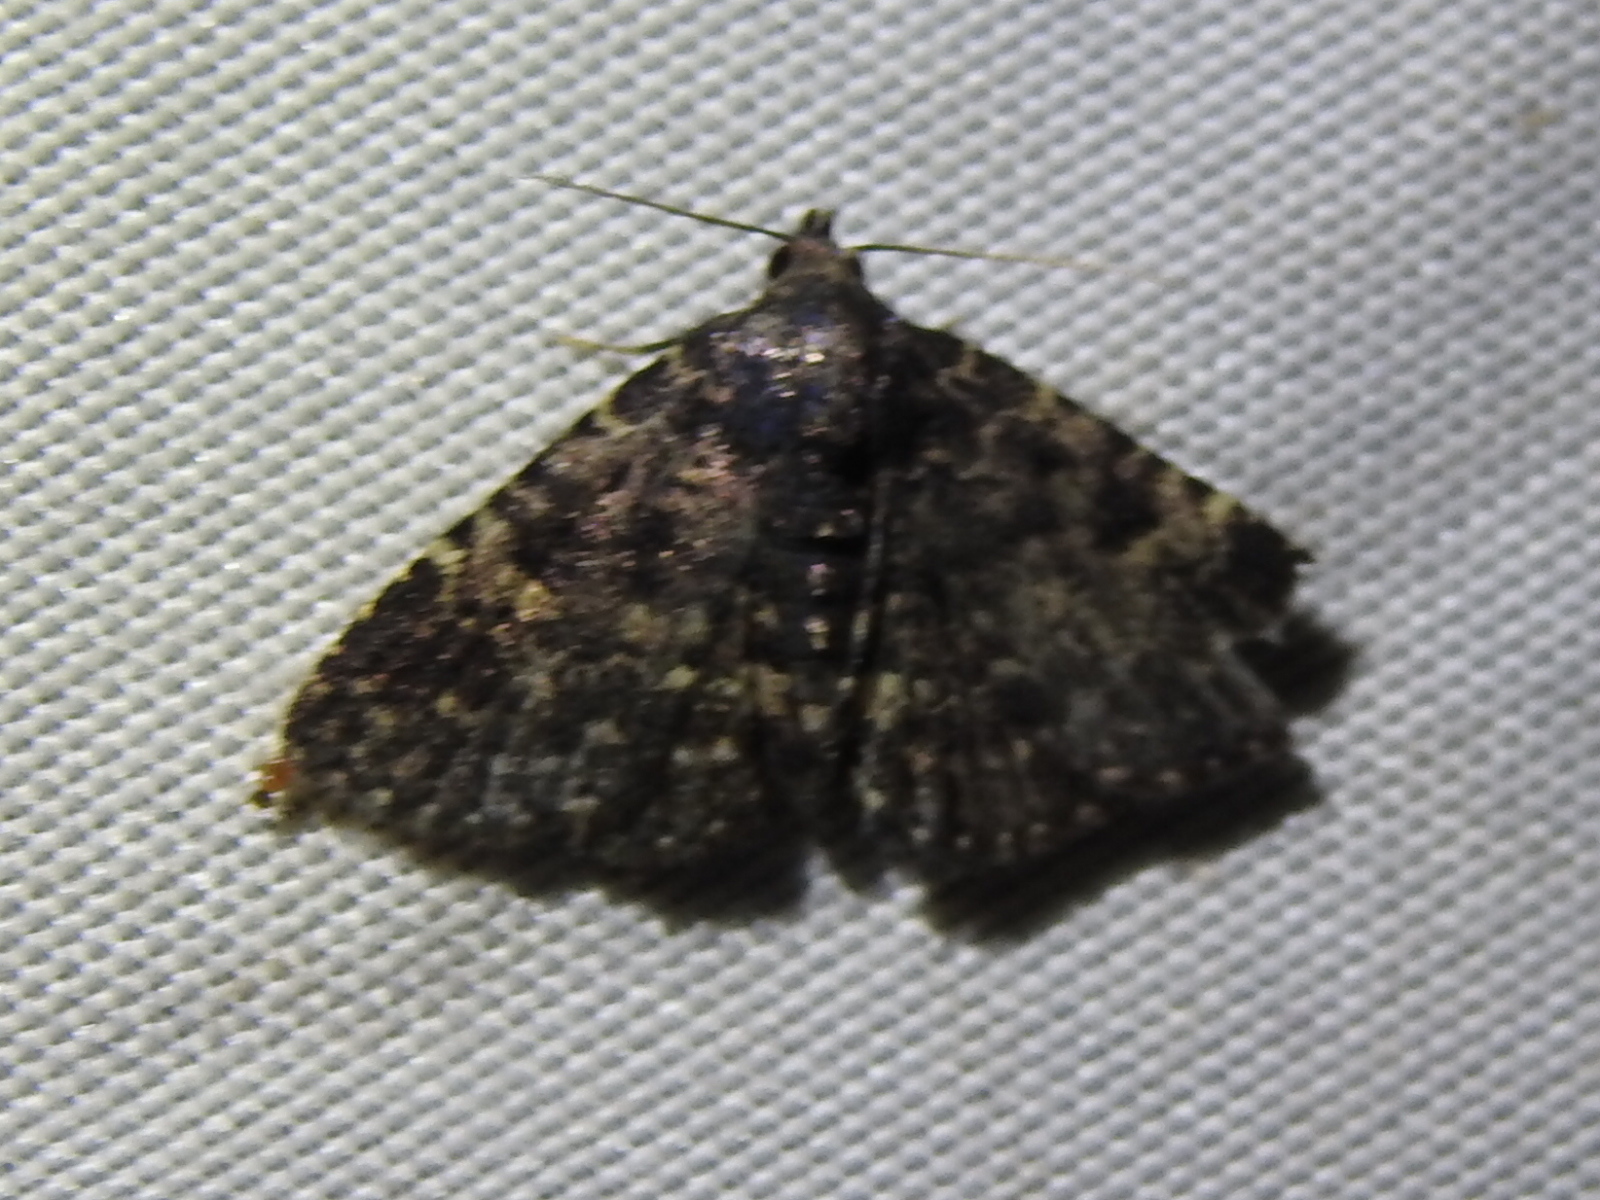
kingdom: Animalia
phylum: Arthropoda
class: Insecta
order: Lepidoptera
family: Erebidae
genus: Metalectra
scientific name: Metalectra discalis
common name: Common fungus moth
